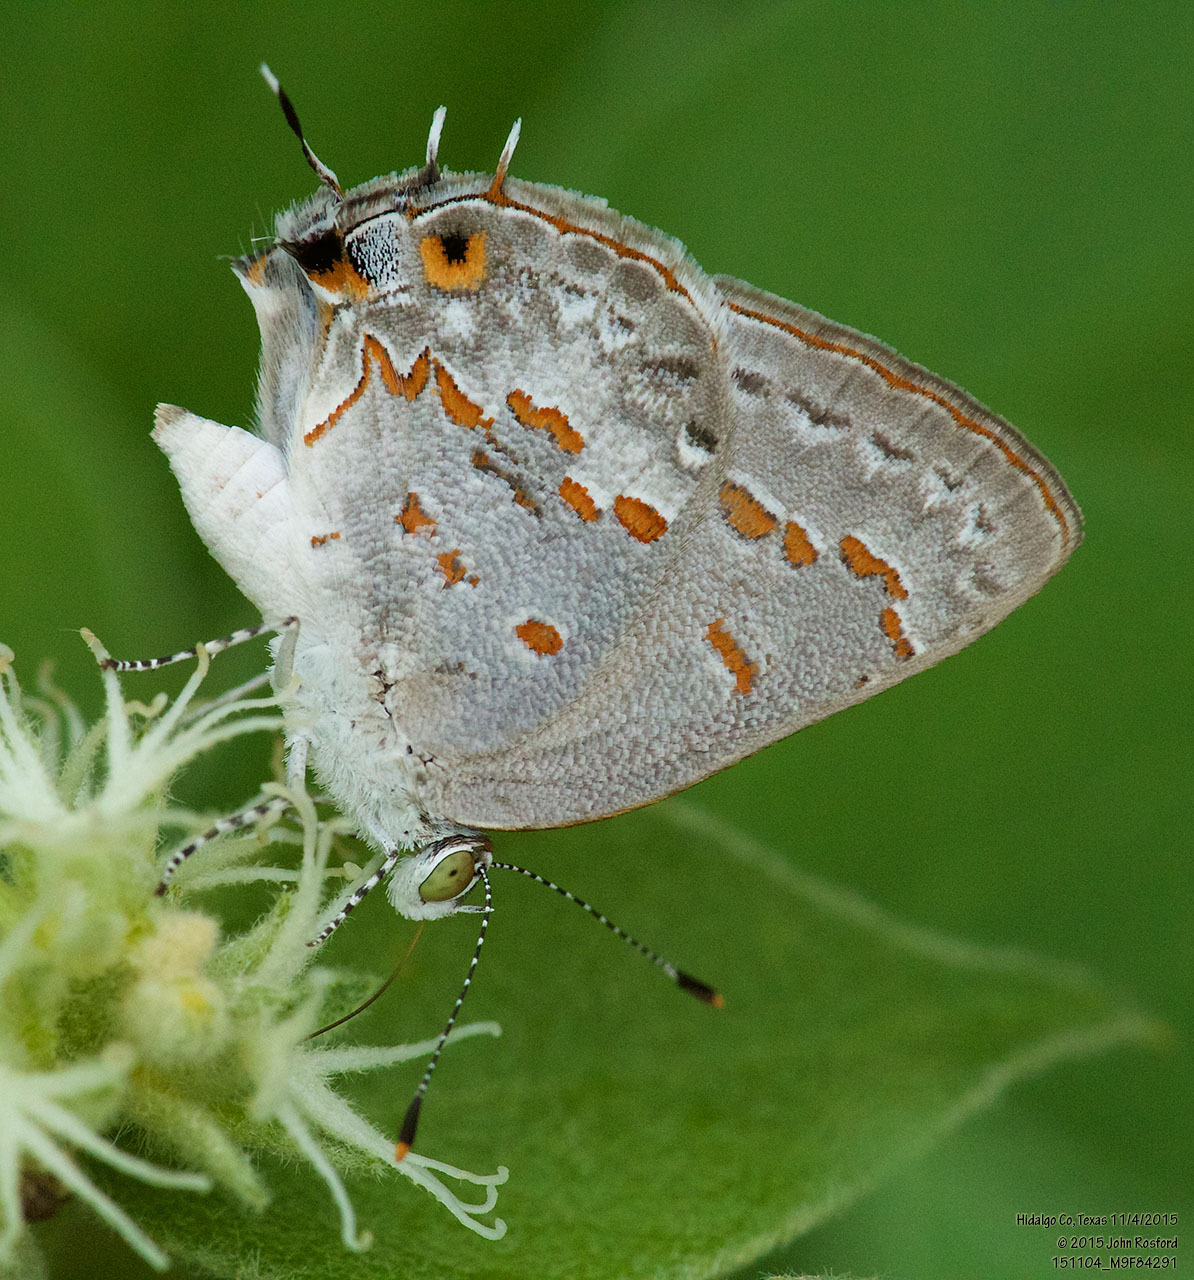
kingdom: Animalia
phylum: Arthropoda
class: Insecta
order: Lepidoptera
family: Lycaenidae
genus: Ministrymon
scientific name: Ministrymon clytie
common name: Clytie ministreak
